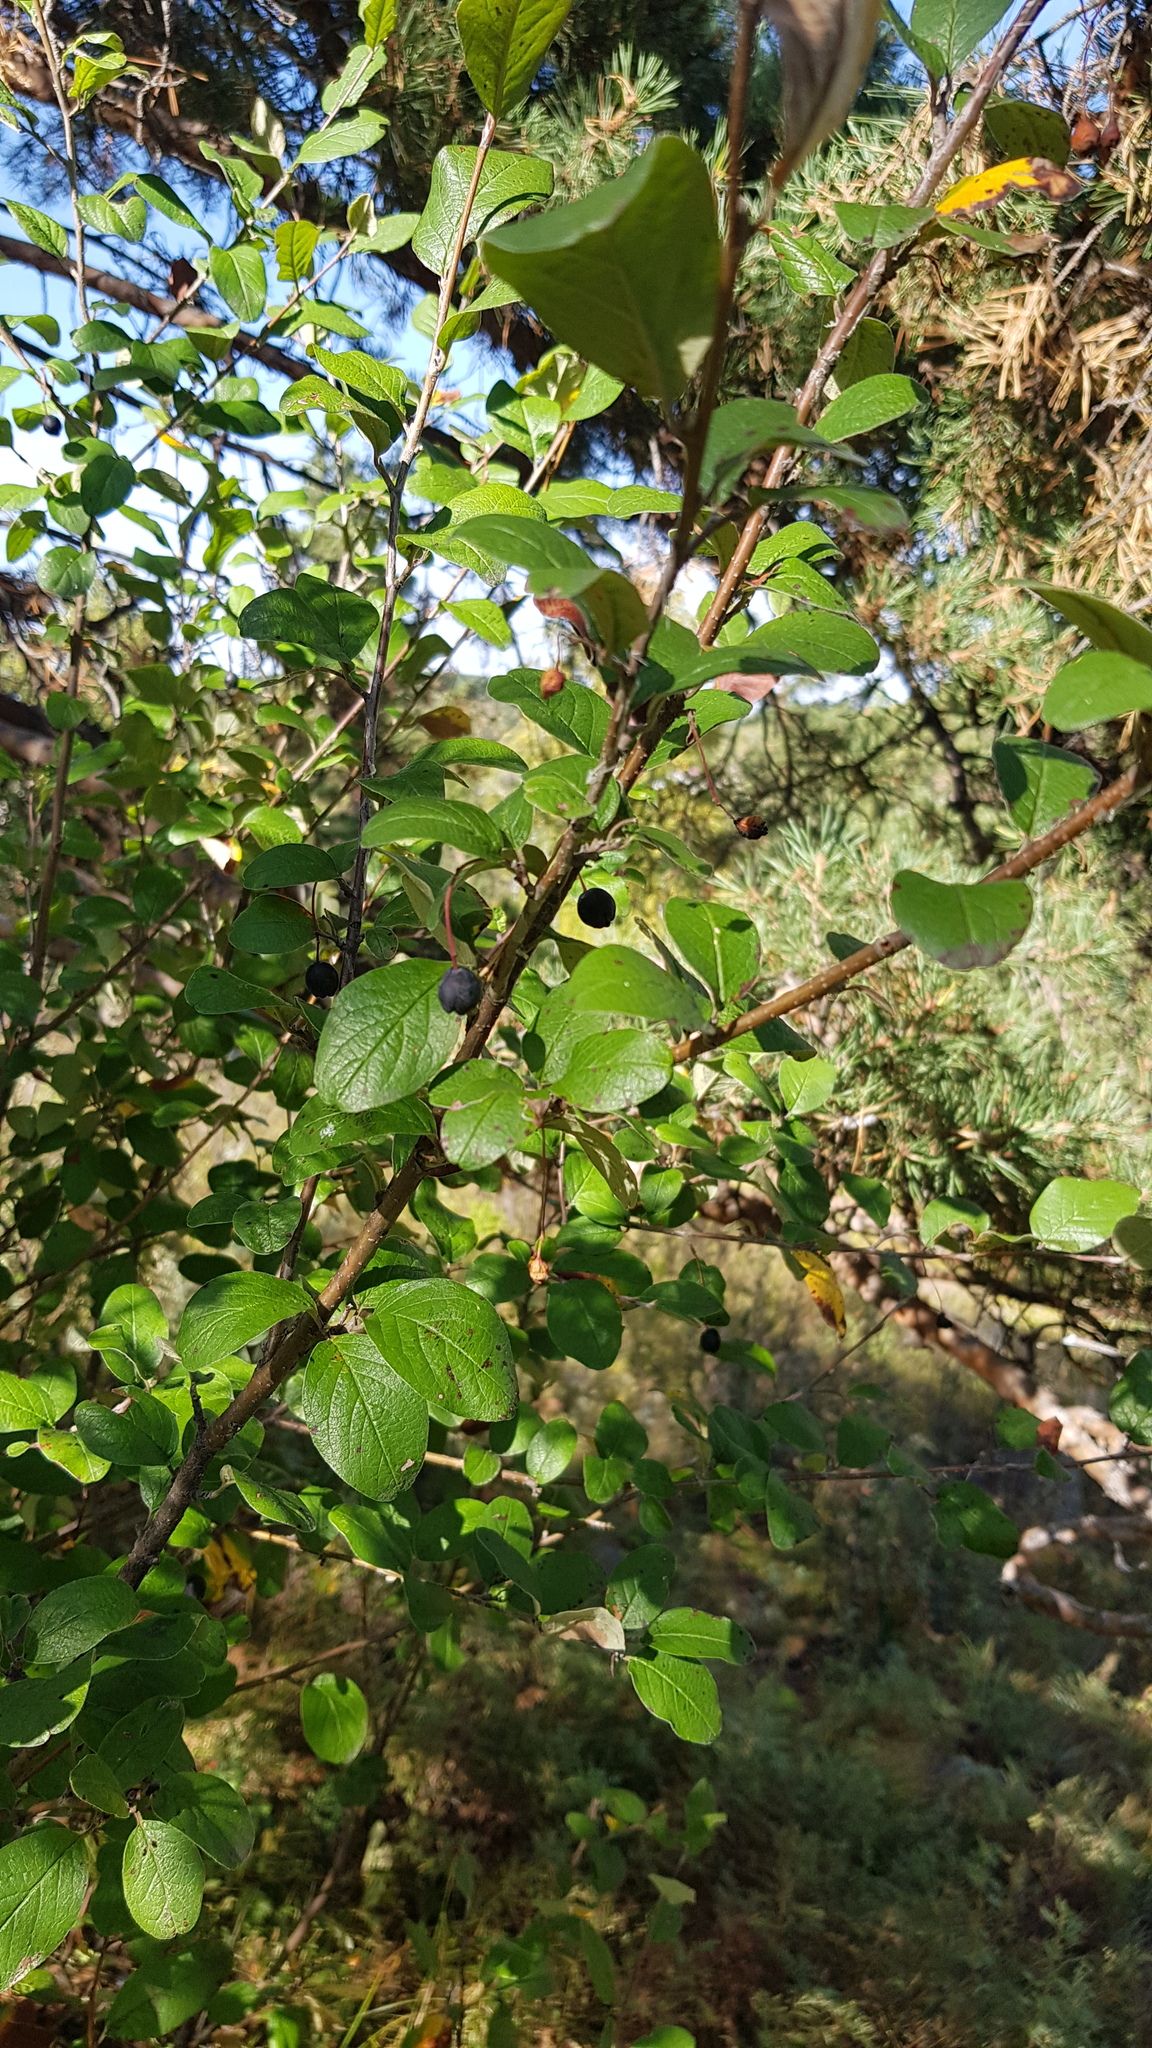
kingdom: Plantae
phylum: Tracheophyta
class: Magnoliopsida
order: Rosales
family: Rosaceae
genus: Cotoneaster
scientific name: Cotoneaster melanocarpus
